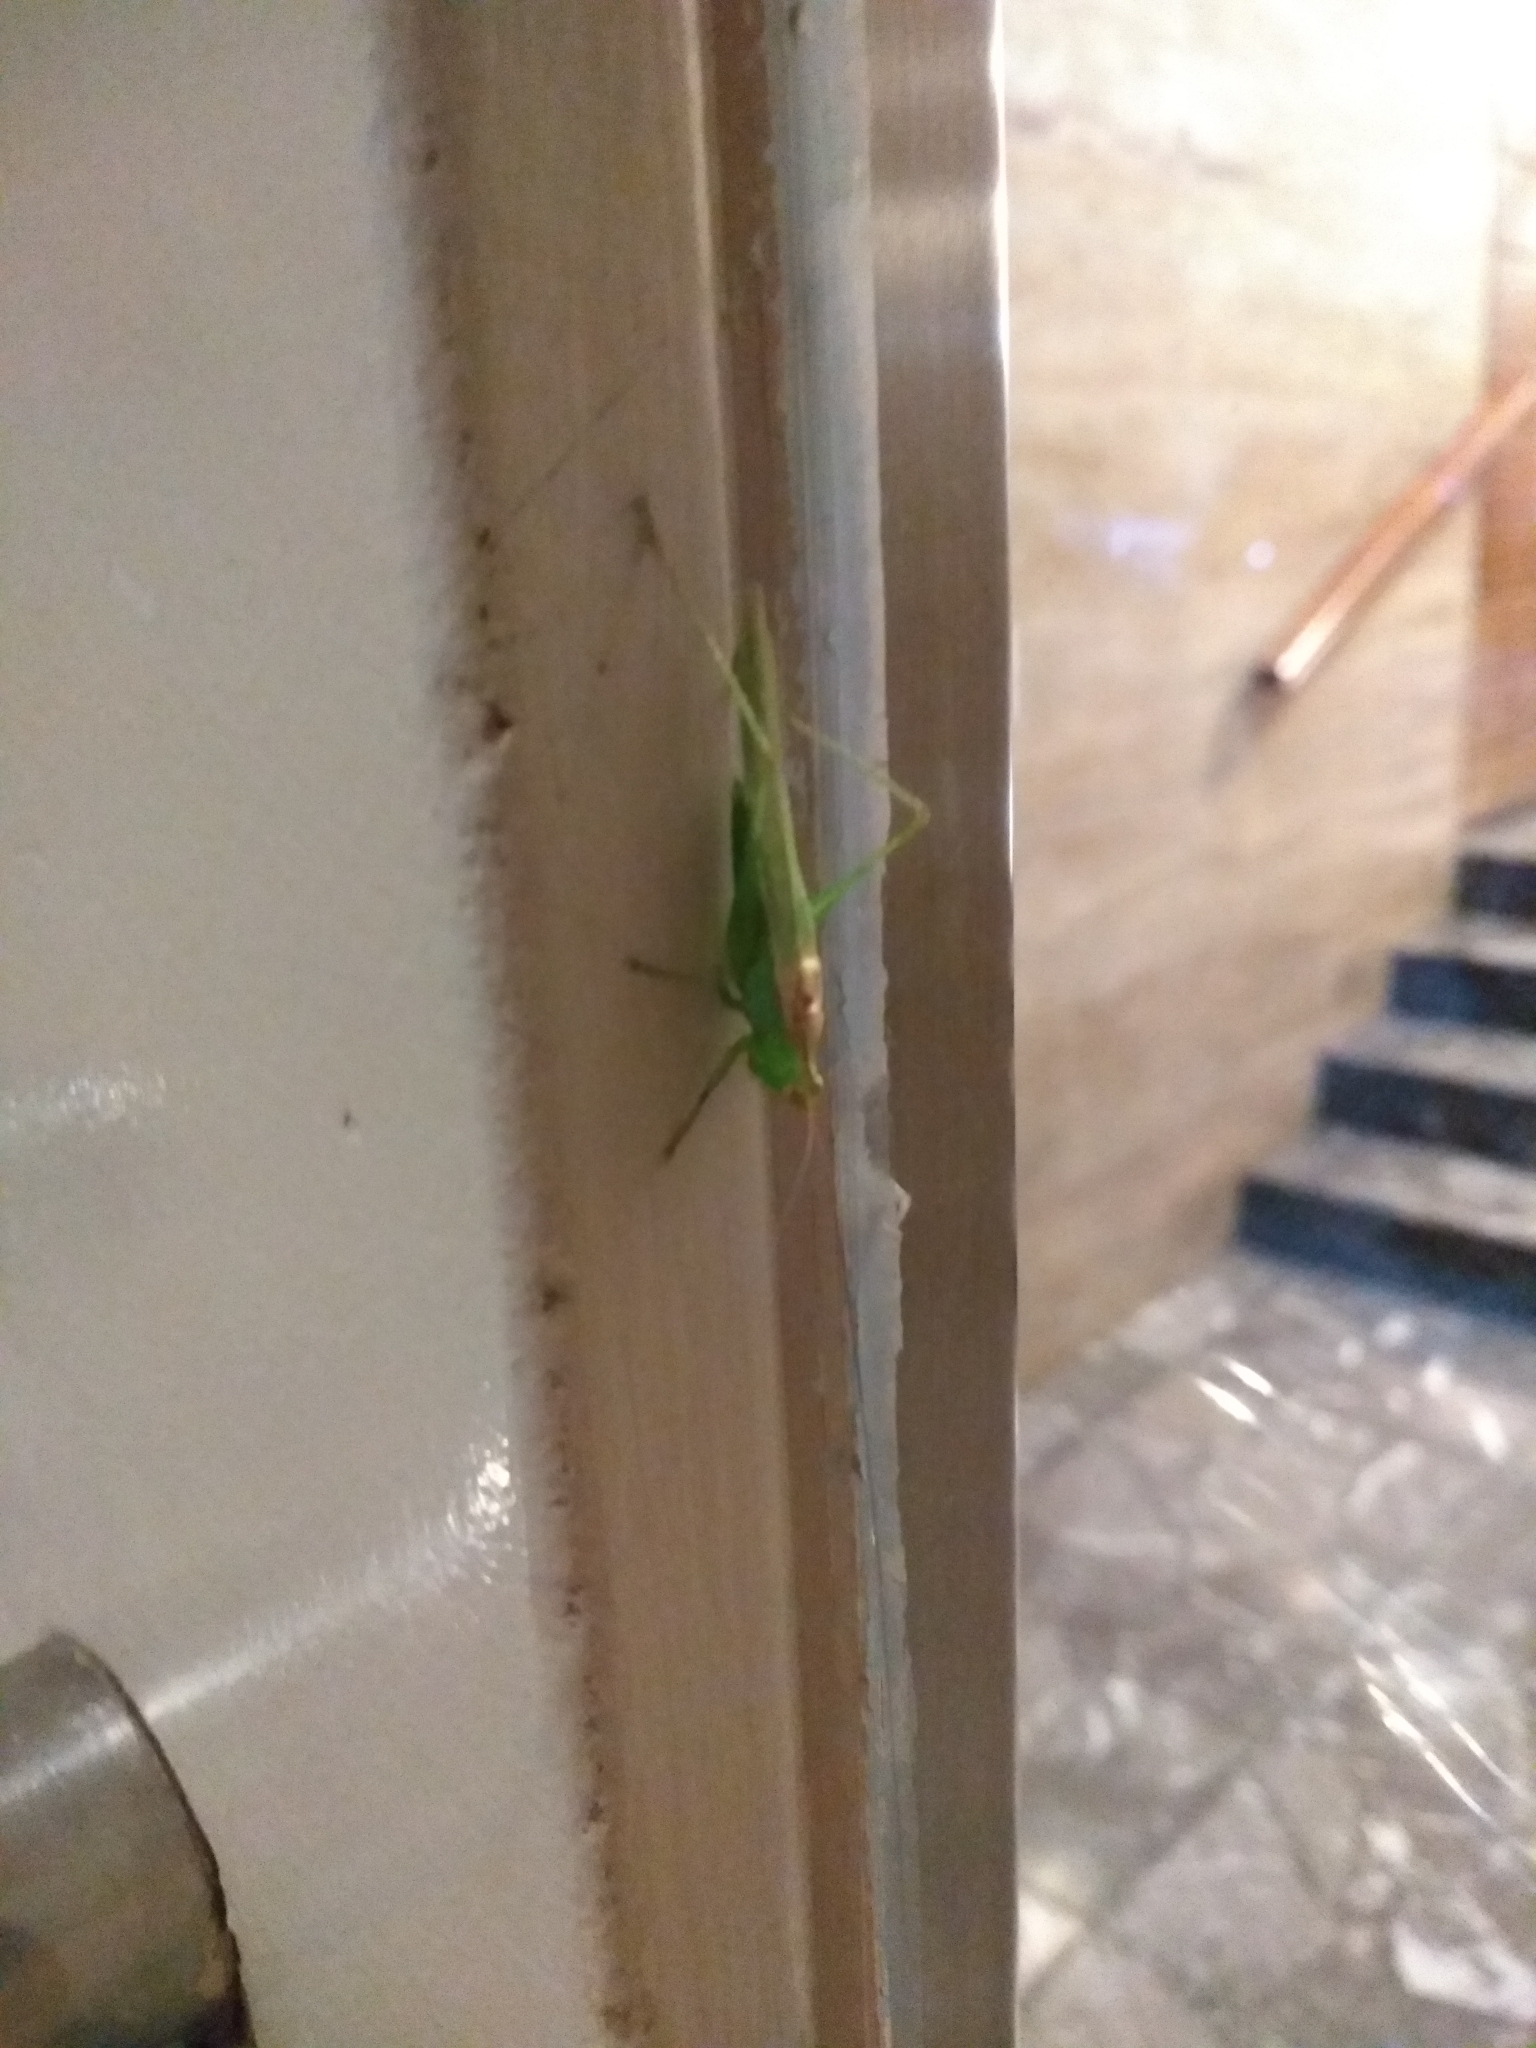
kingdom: Animalia
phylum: Arthropoda
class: Insecta
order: Orthoptera
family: Tettigoniidae
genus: Conocephalus
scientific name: Conocephalus longipes
